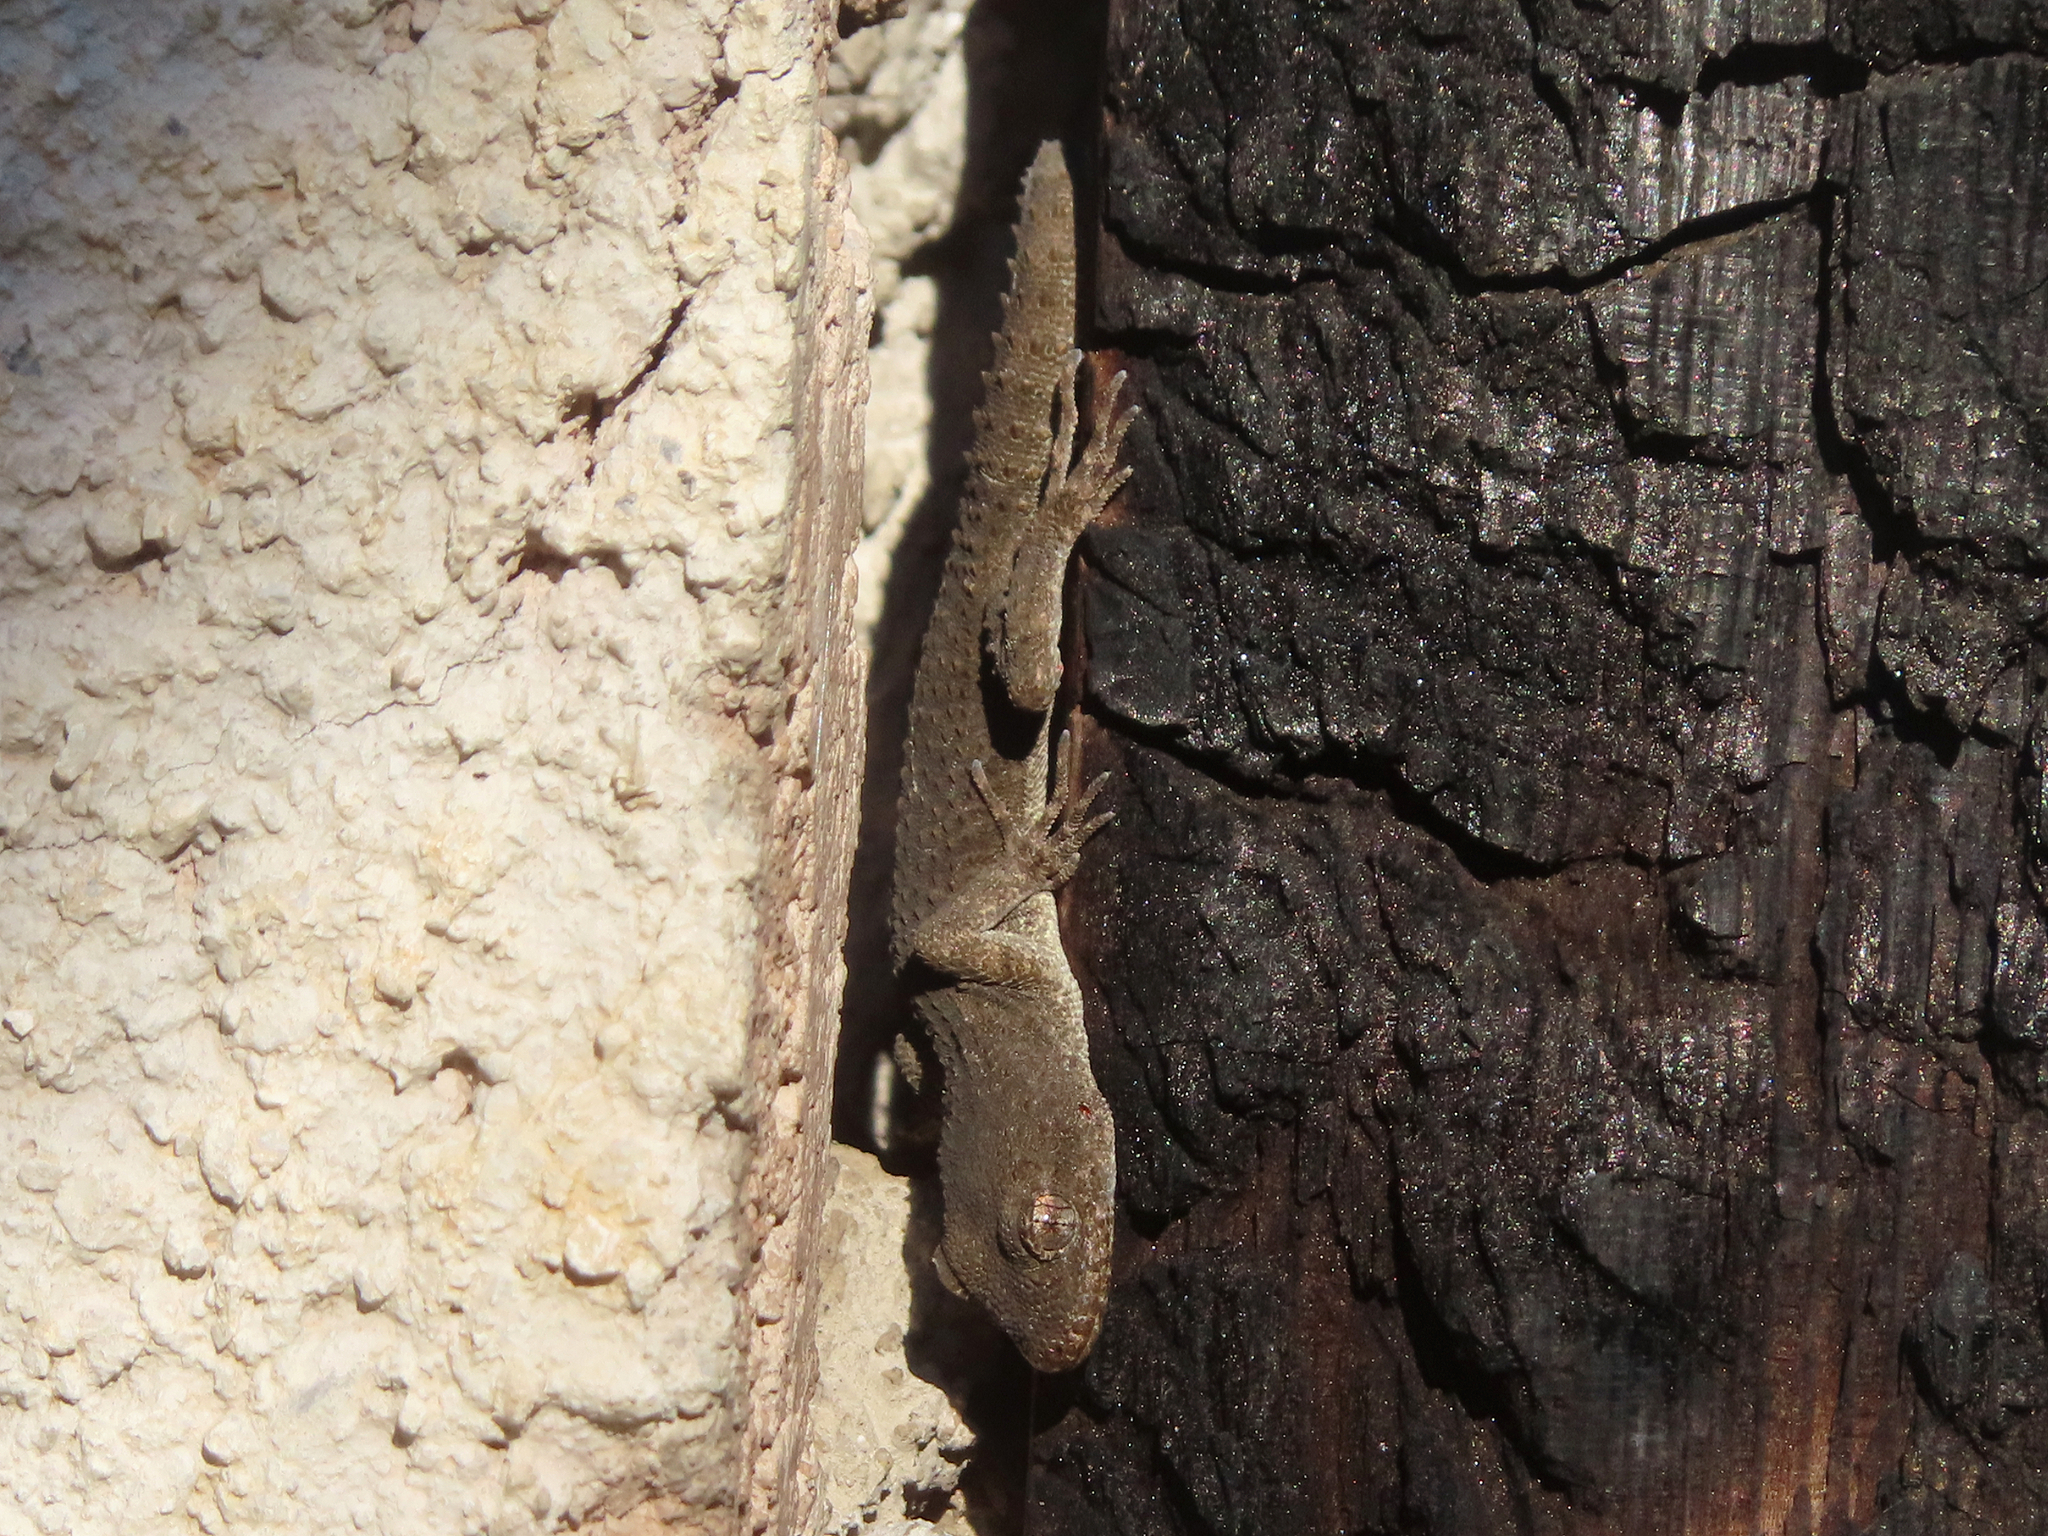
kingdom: Animalia
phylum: Chordata
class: Squamata
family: Gekkonidae
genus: Mediodactylus
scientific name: Mediodactylus kotschyi
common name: Kotschy's gecko
